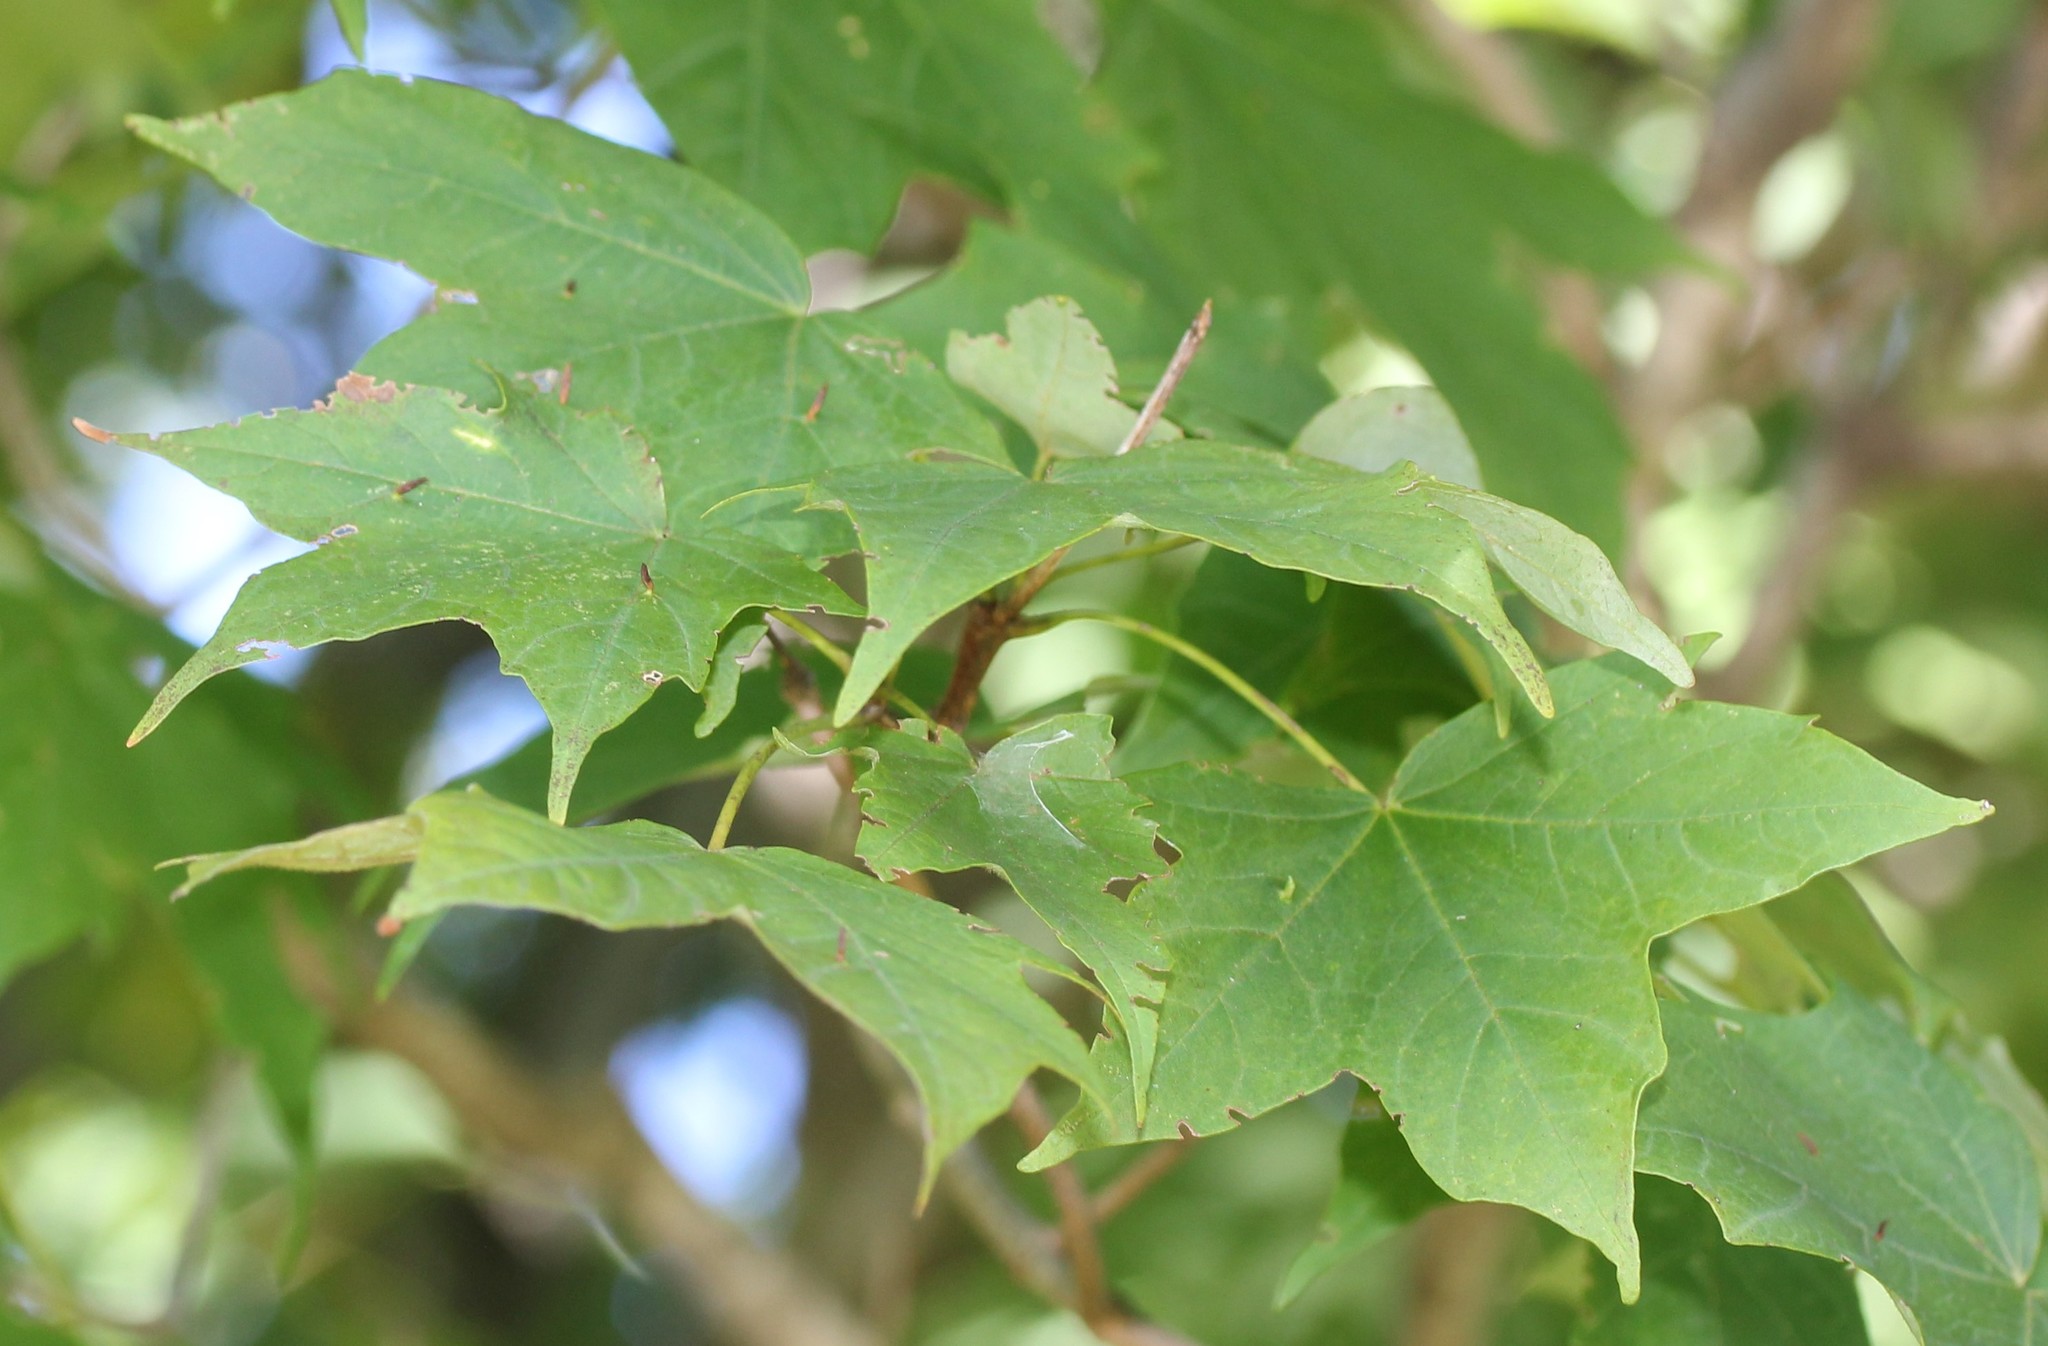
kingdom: Animalia
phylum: Arthropoda
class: Arachnida
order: Trombidiformes
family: Eriophyidae
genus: Vasates
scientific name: Vasates aceriscrumena
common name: Maple spindle gall mite
